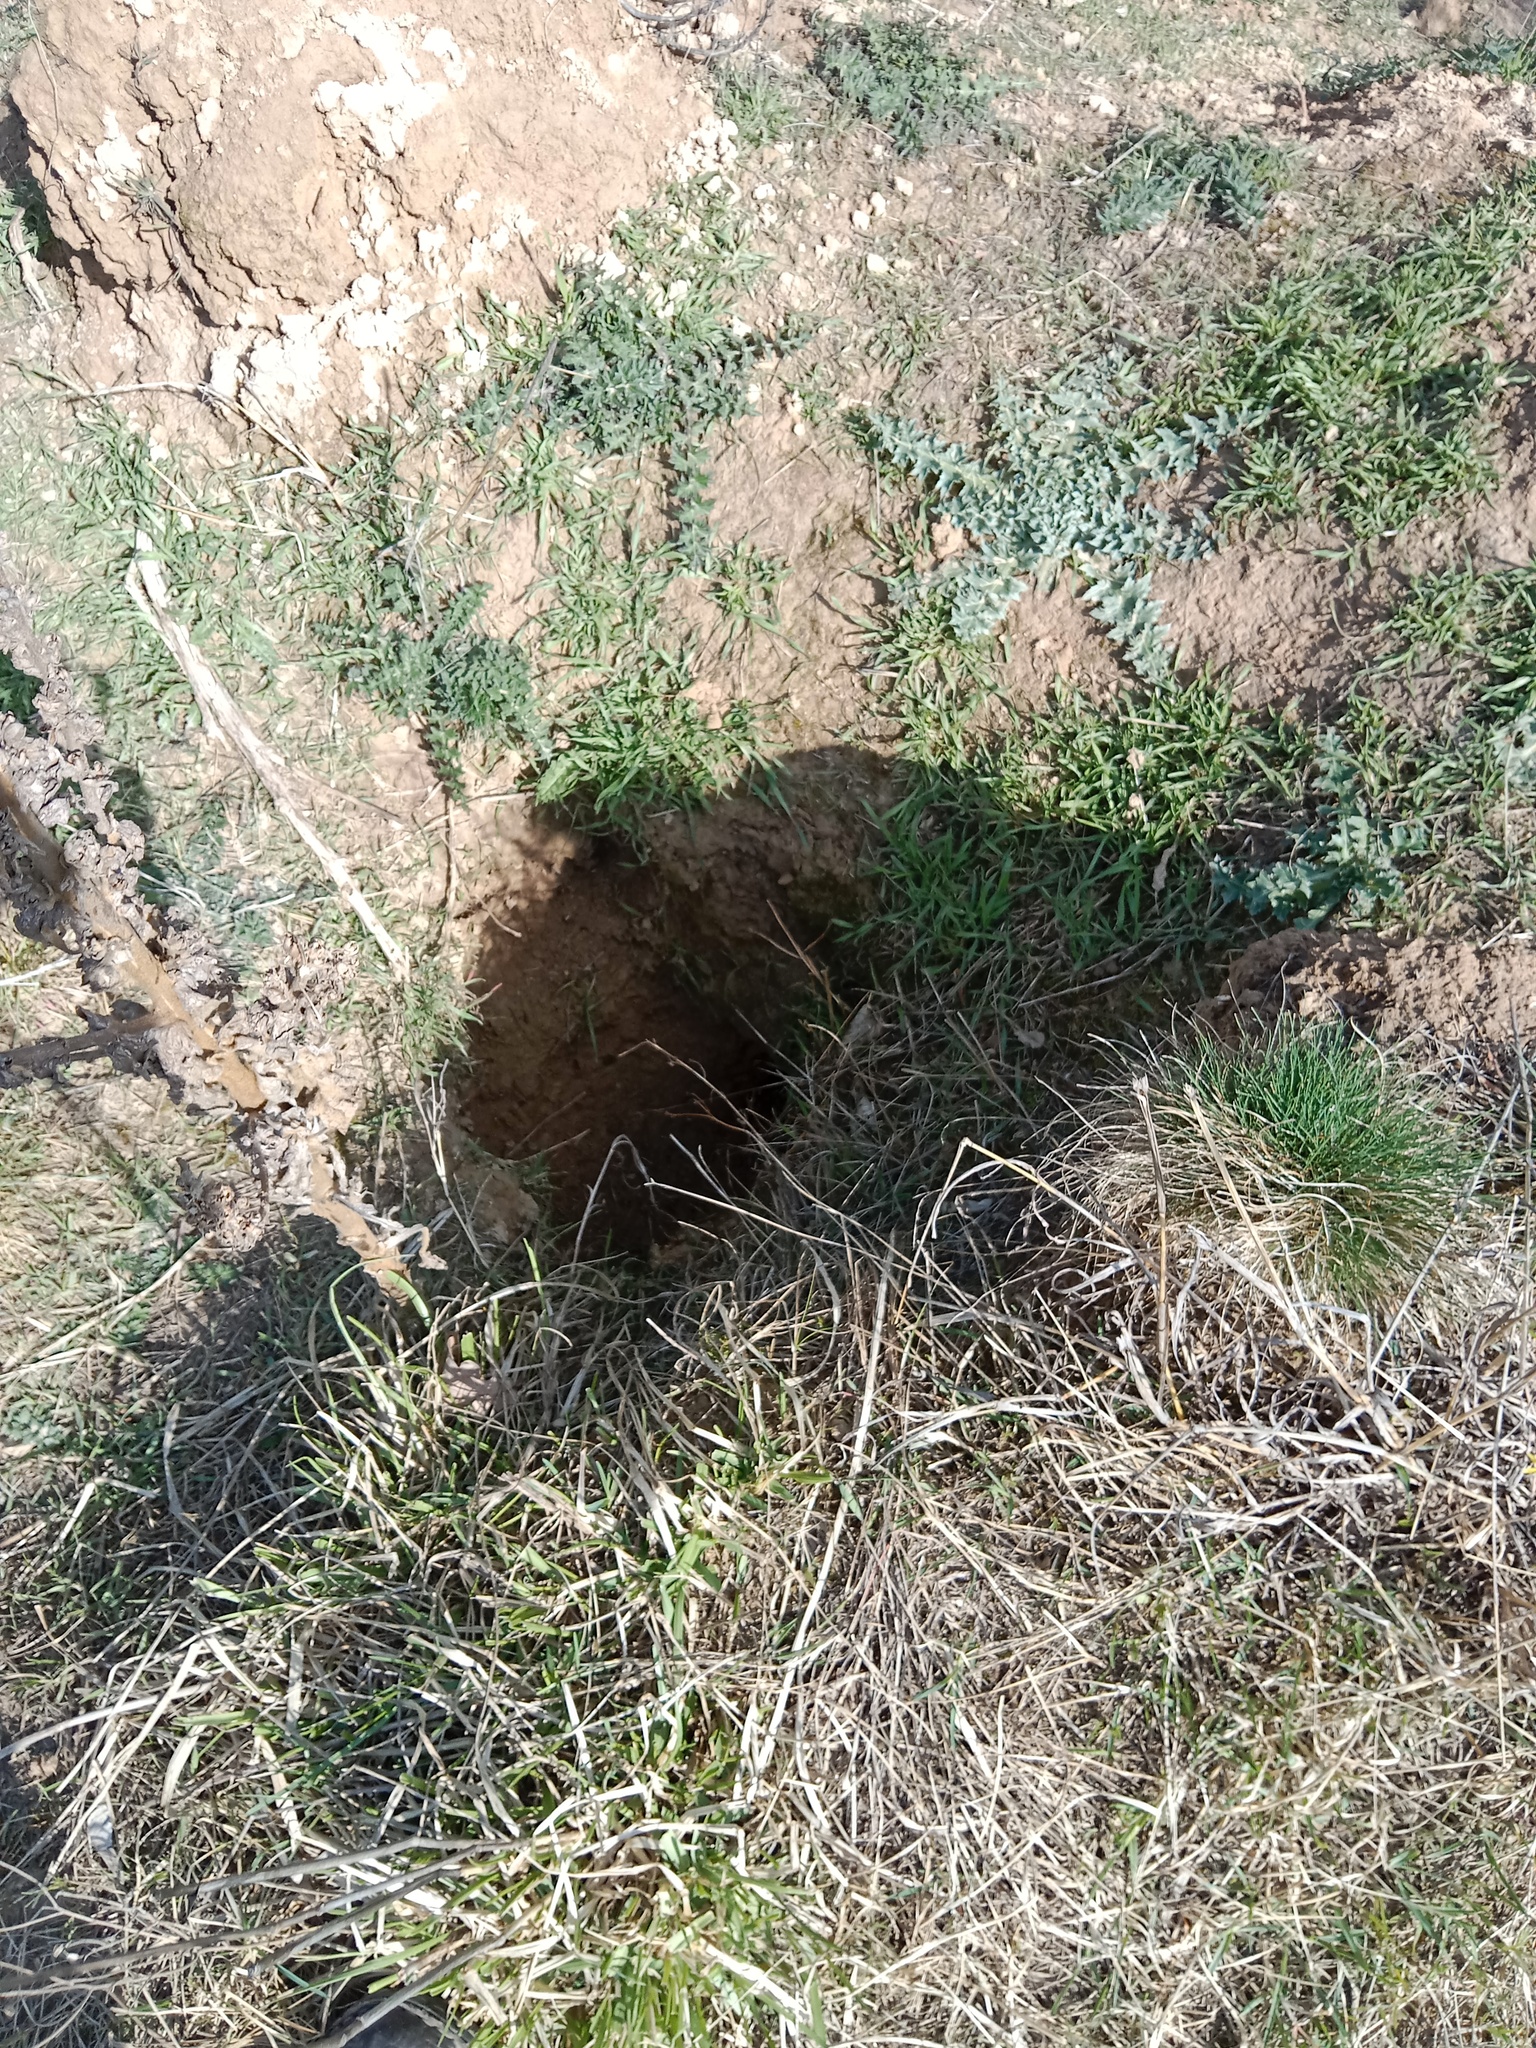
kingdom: Animalia
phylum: Chordata
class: Mammalia
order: Rodentia
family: Sciuridae
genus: Marmota
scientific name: Marmota bobak
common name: Bobak marmot
